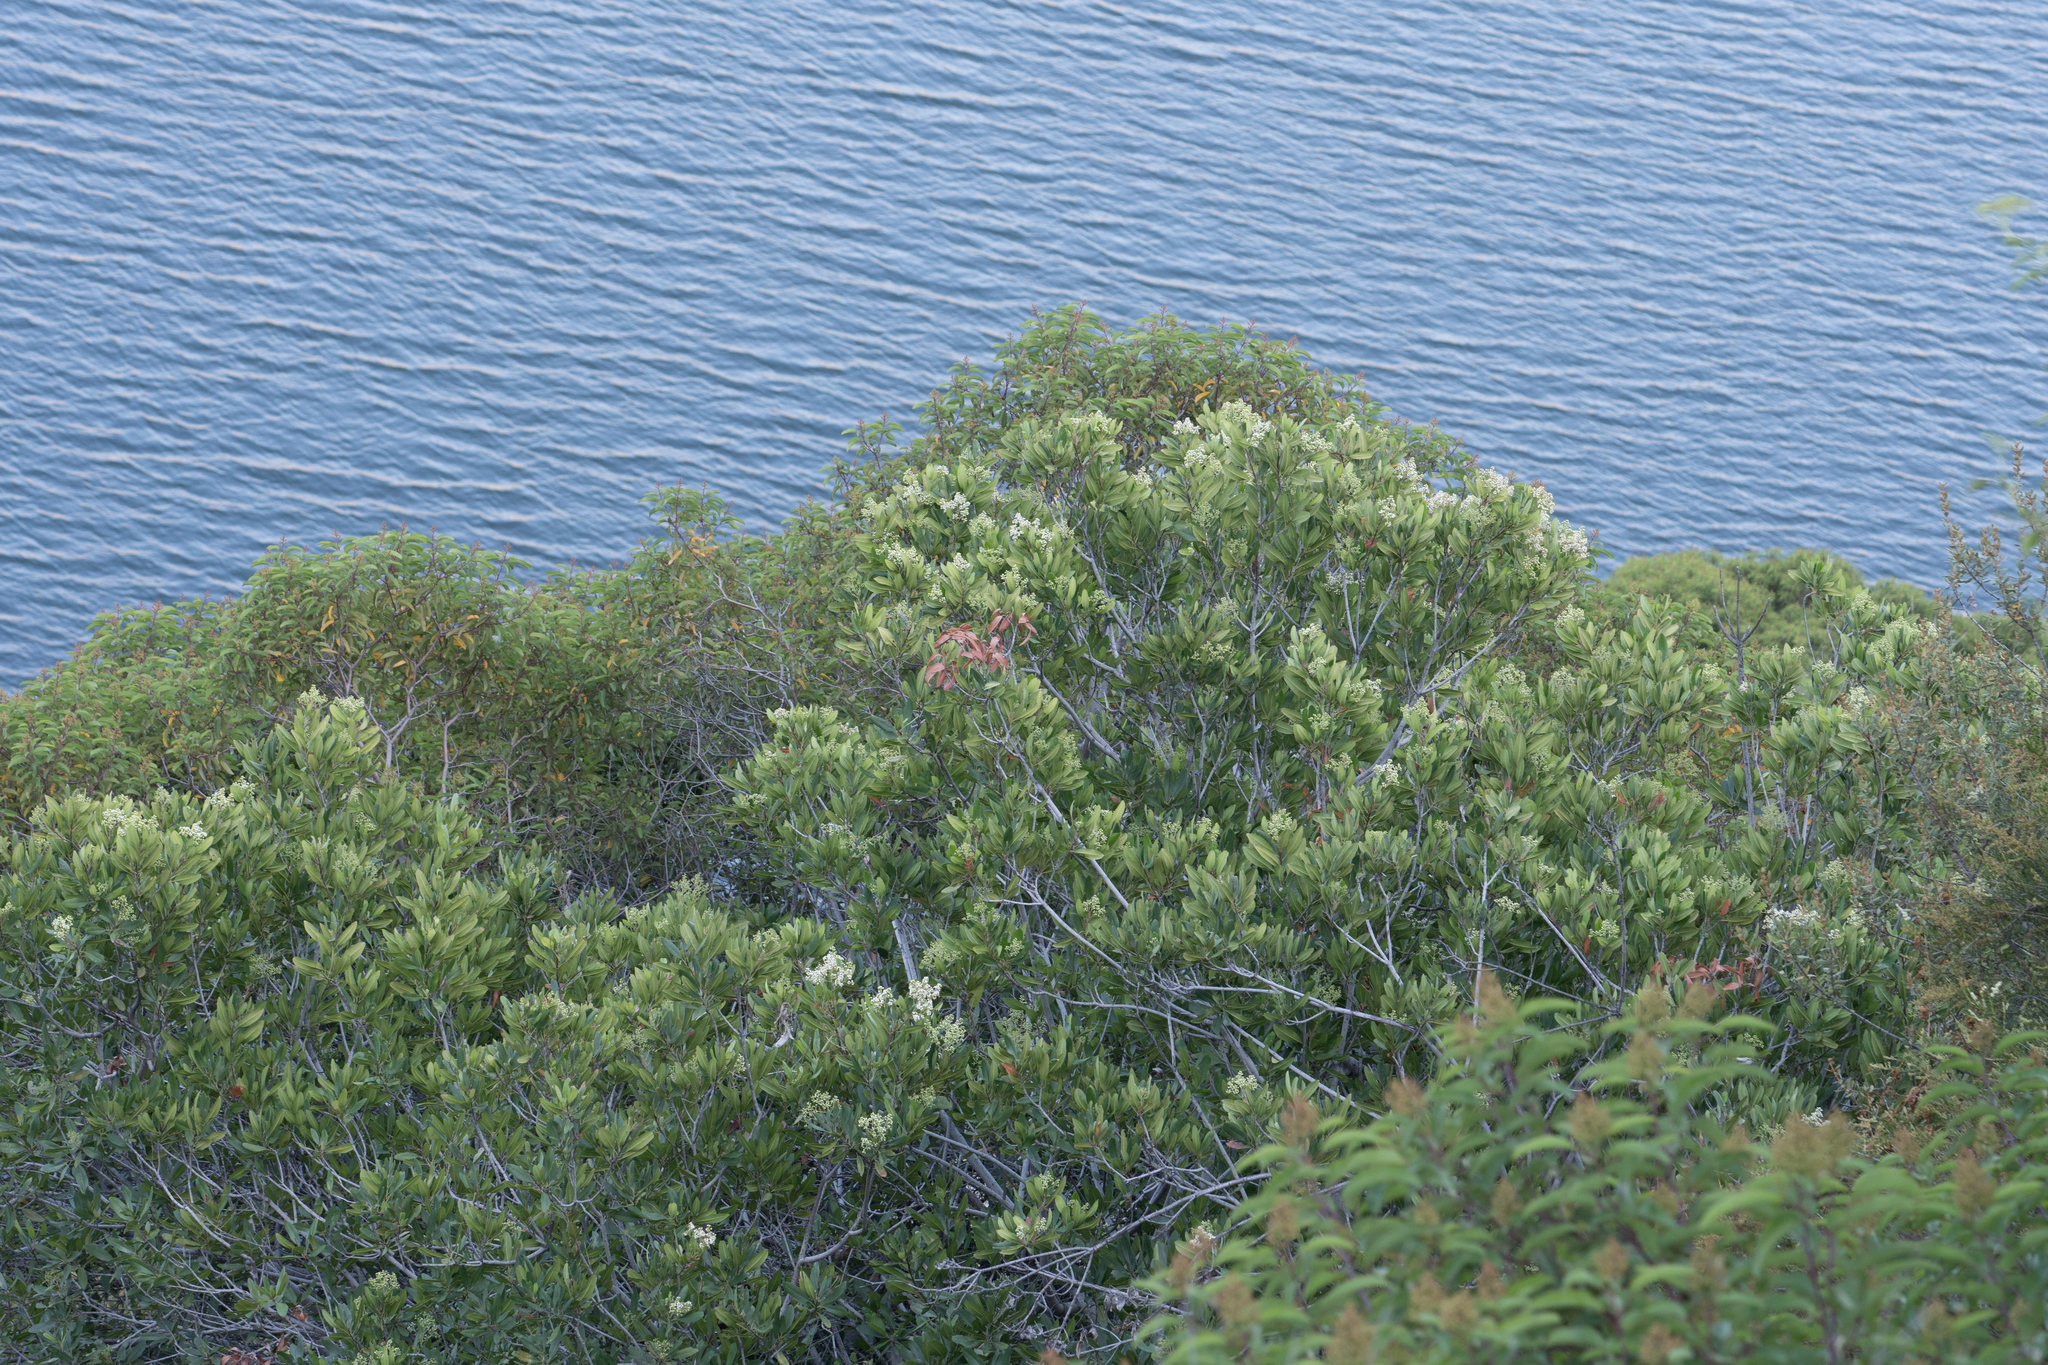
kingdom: Plantae
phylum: Tracheophyta
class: Magnoliopsida
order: Rosales
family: Rosaceae
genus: Heteromeles
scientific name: Heteromeles arbutifolia
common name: California-holly
